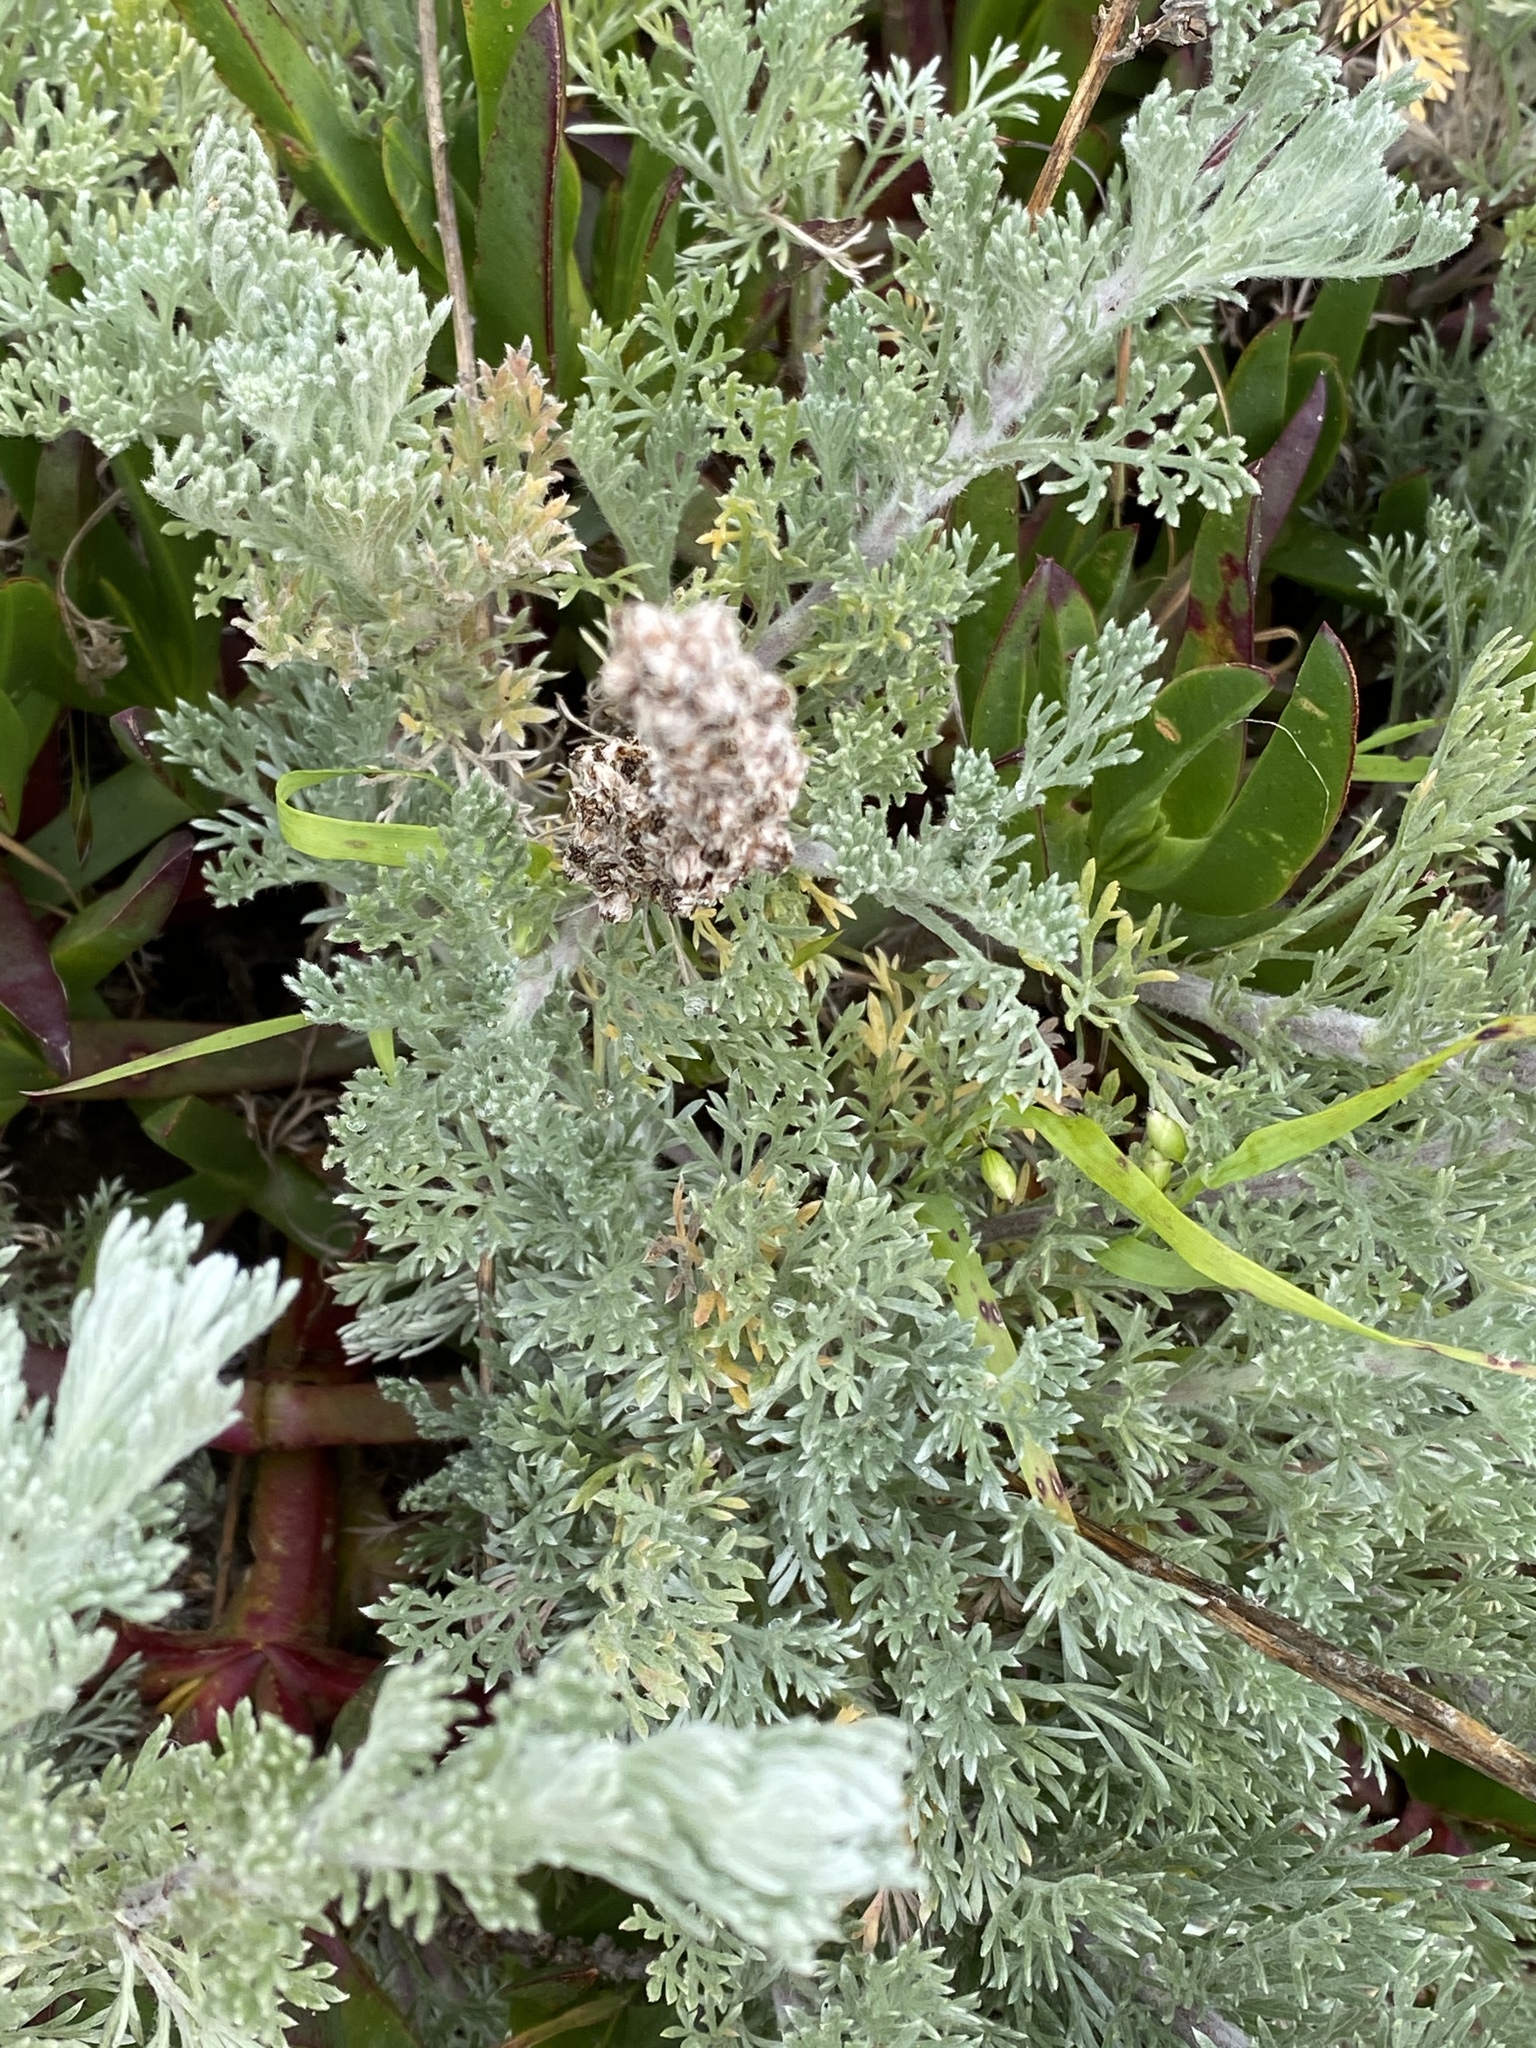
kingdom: Plantae
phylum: Tracheophyta
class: Magnoliopsida
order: Asterales
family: Asteraceae
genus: Artemisia
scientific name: Artemisia pycnocephala
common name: Coastal sagewort
